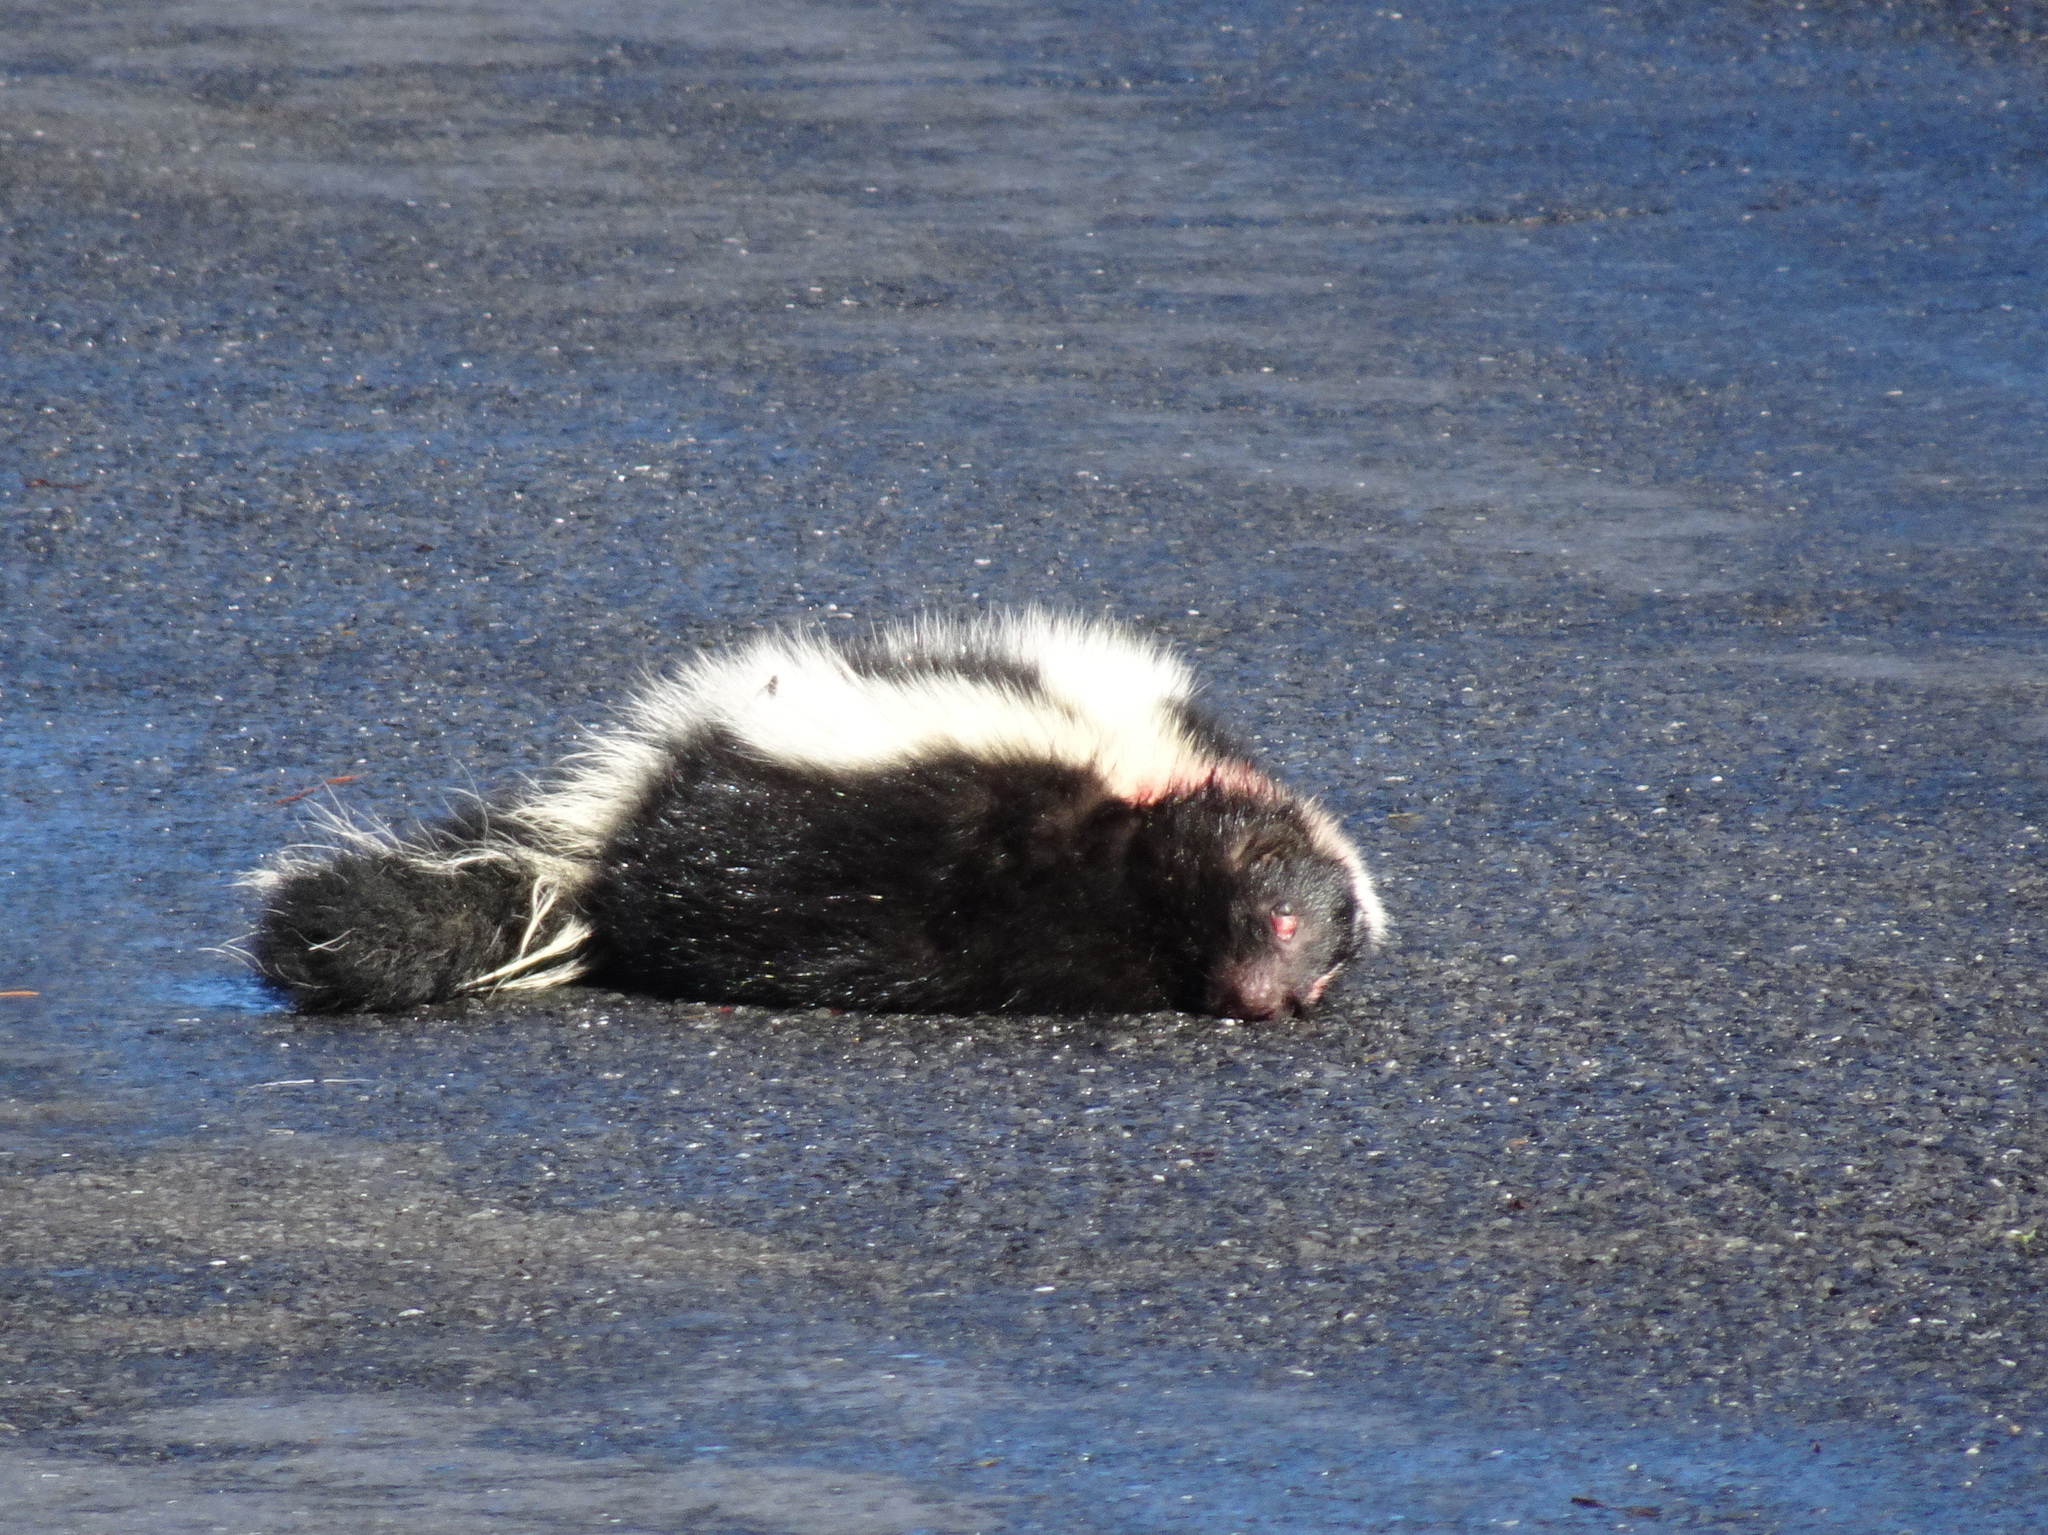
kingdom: Animalia
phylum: Chordata
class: Mammalia
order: Carnivora
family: Mephitidae
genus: Mephitis
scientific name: Mephitis mephitis
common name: Striped skunk
